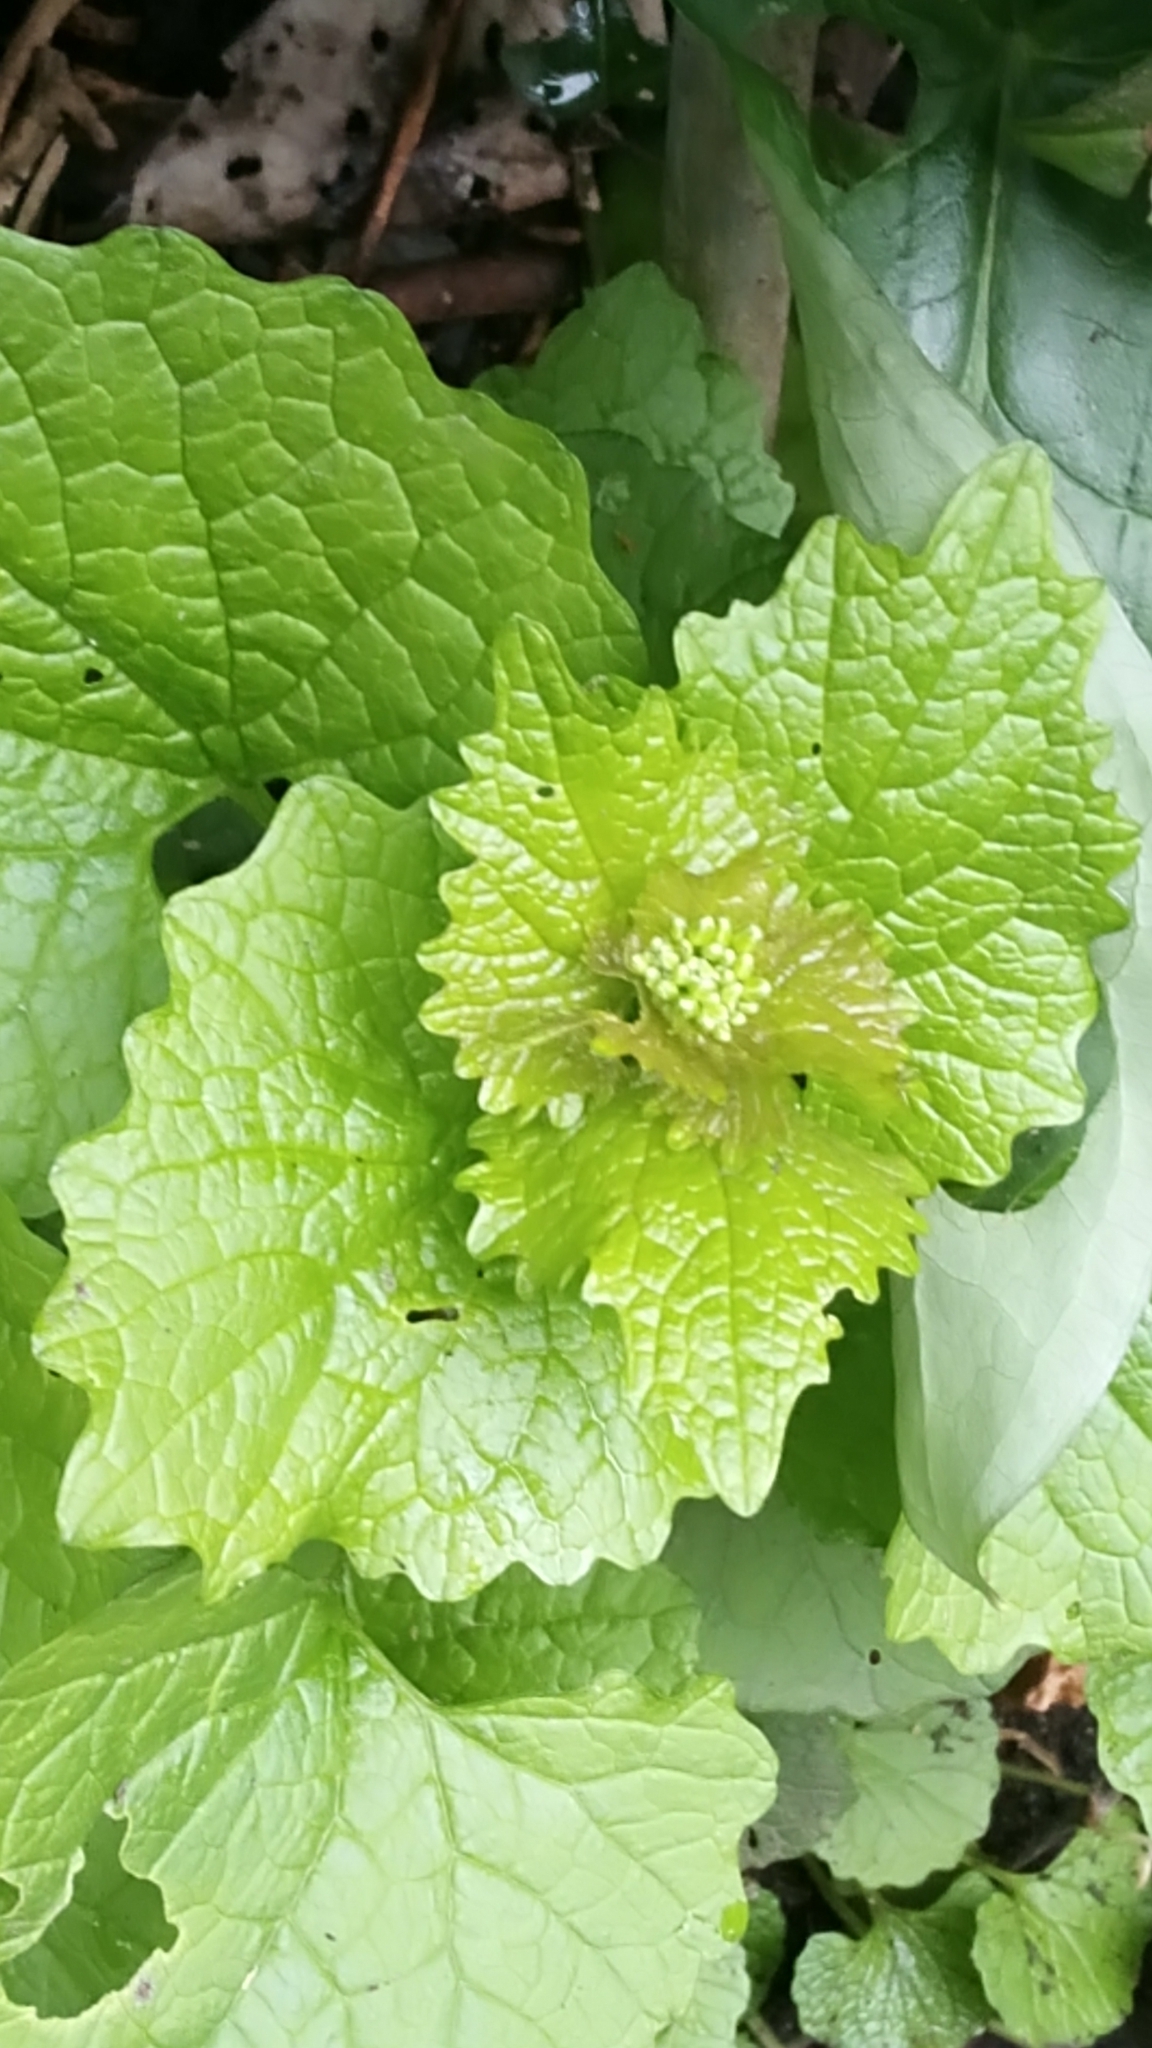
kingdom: Plantae
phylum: Tracheophyta
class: Magnoliopsida
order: Brassicales
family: Brassicaceae
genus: Alliaria
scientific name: Alliaria petiolata
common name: Garlic mustard
